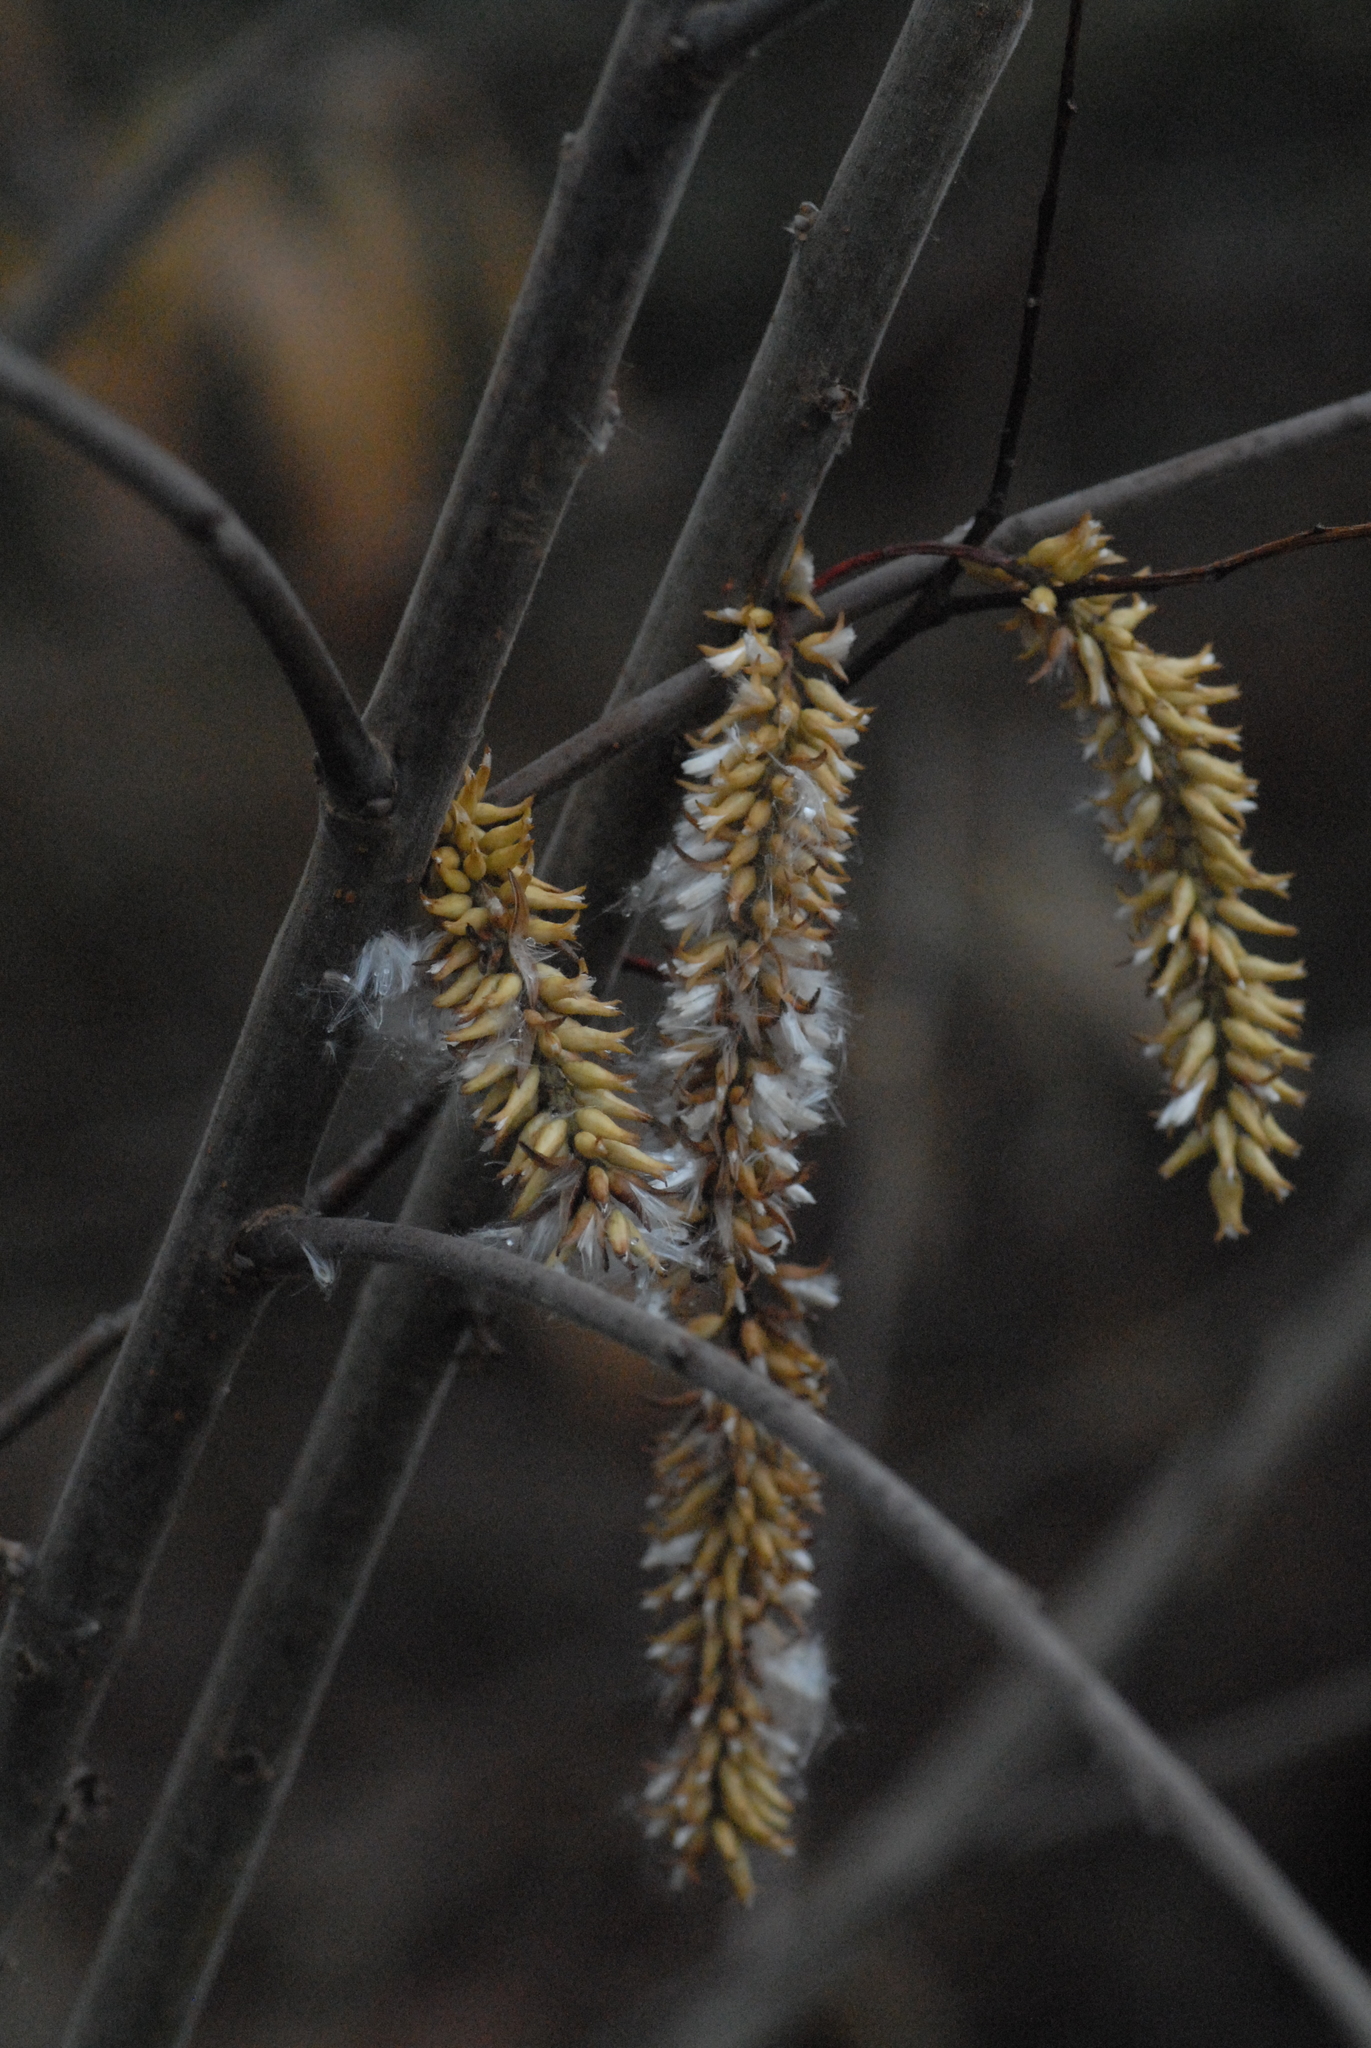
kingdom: Plantae
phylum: Tracheophyta
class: Magnoliopsida
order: Malpighiales
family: Salicaceae
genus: Salix
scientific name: Salix pentandra
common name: Bay willow
